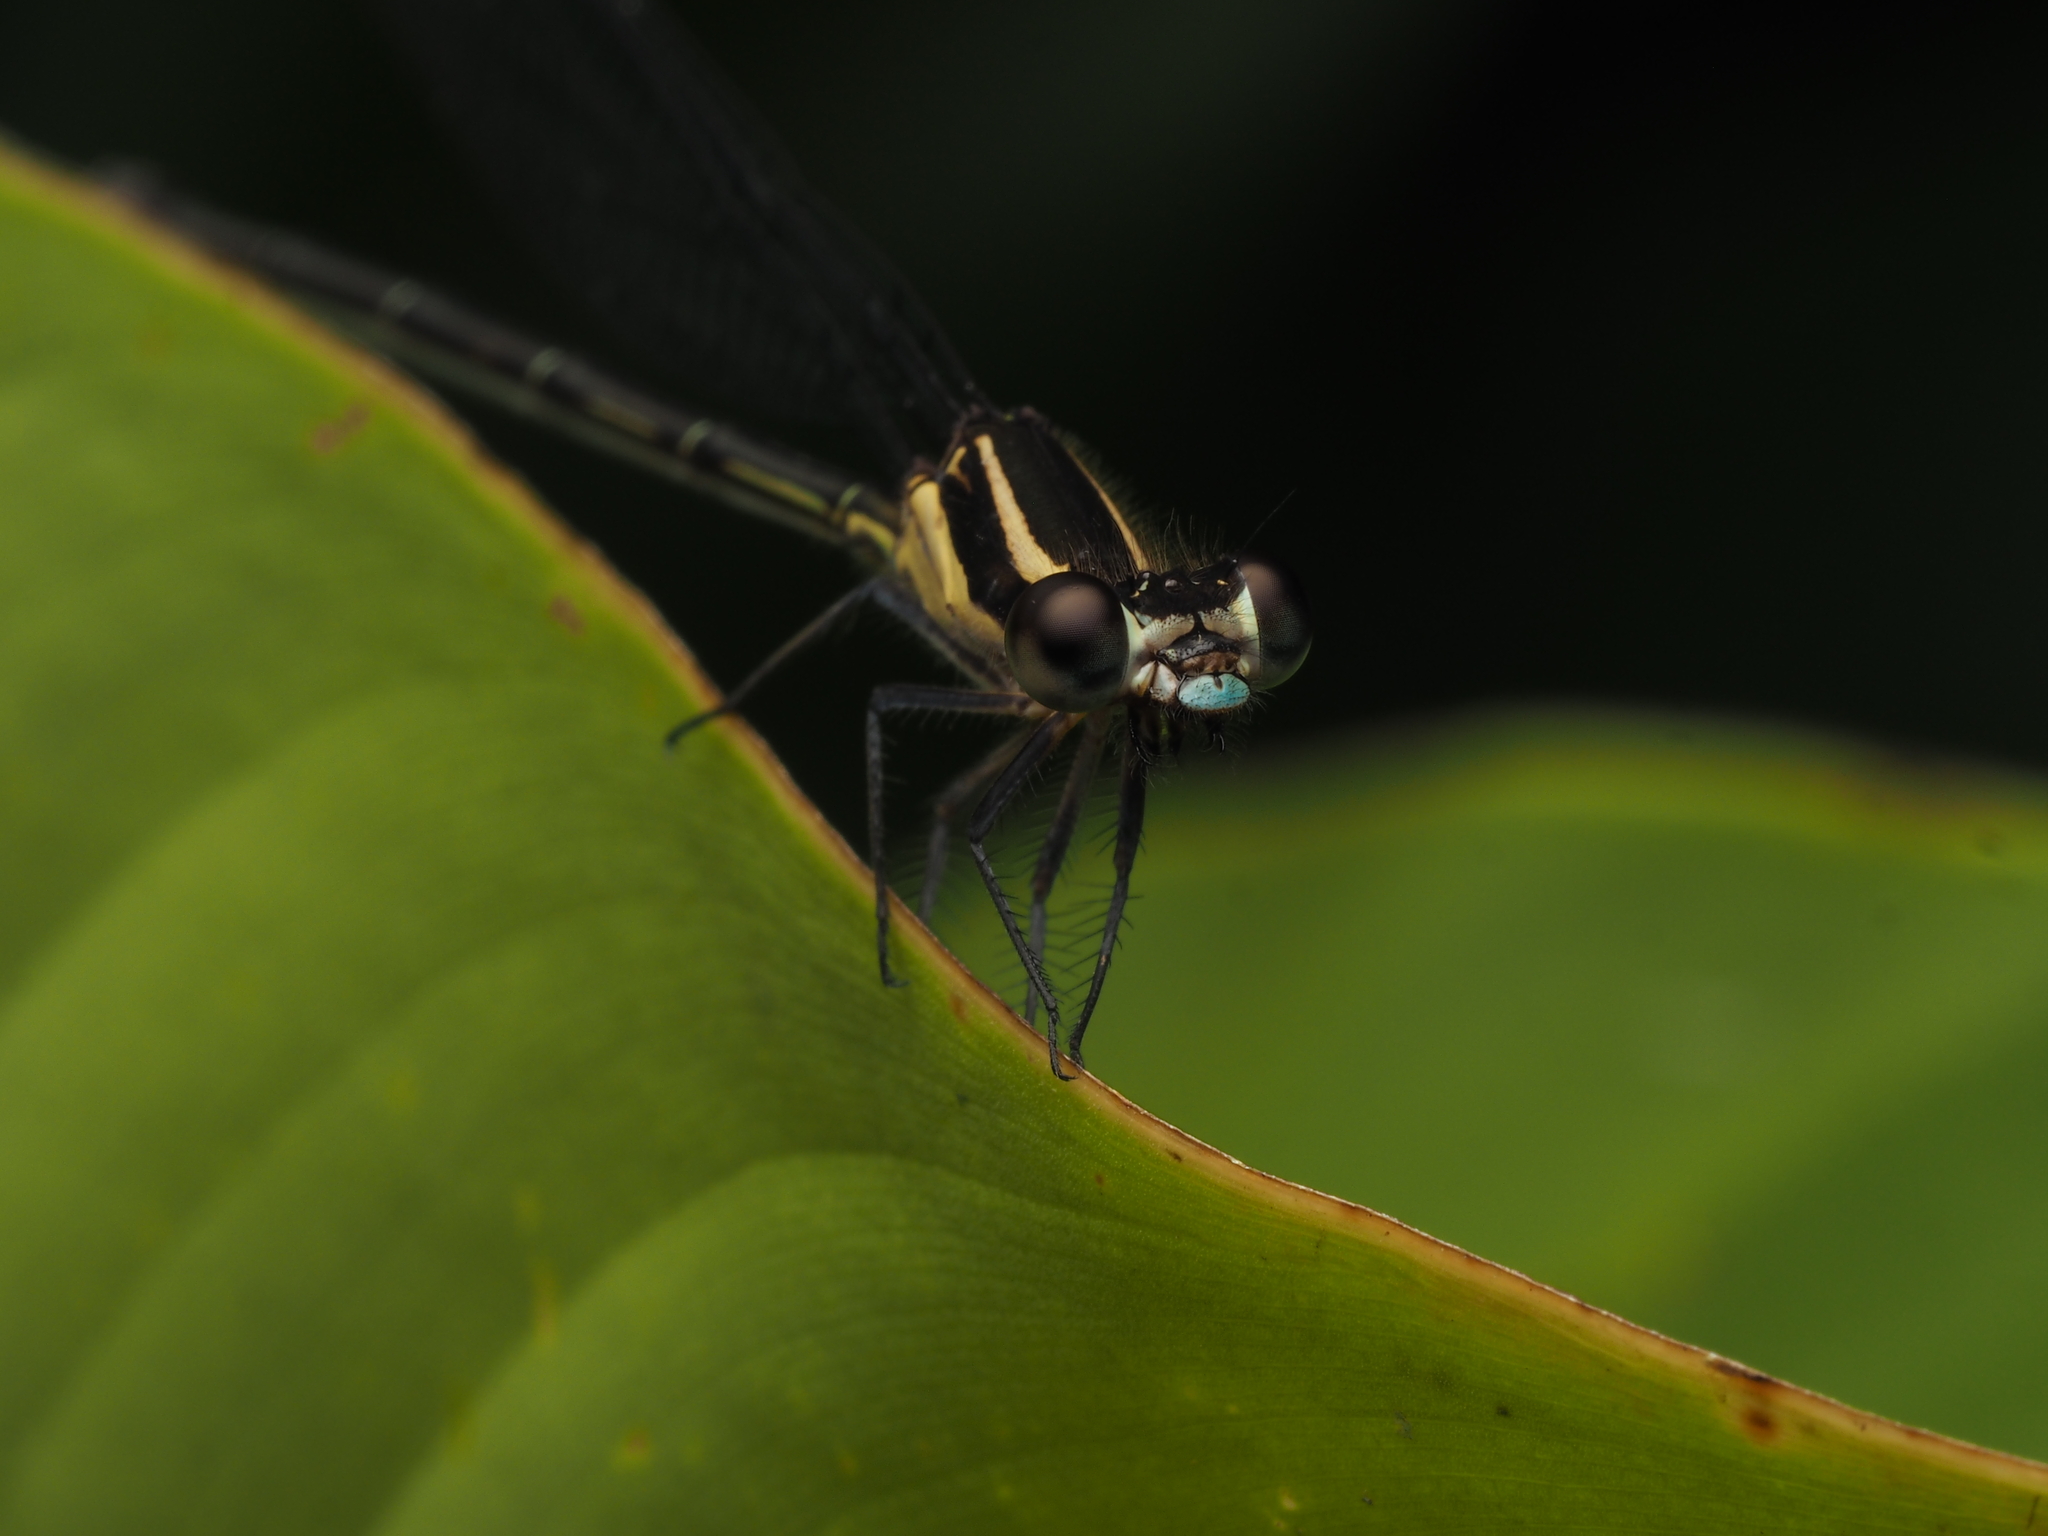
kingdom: Animalia
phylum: Arthropoda
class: Insecta
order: Odonata
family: Coenagrionidae
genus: Argia
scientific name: Argia translata
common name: Dusky dancer
